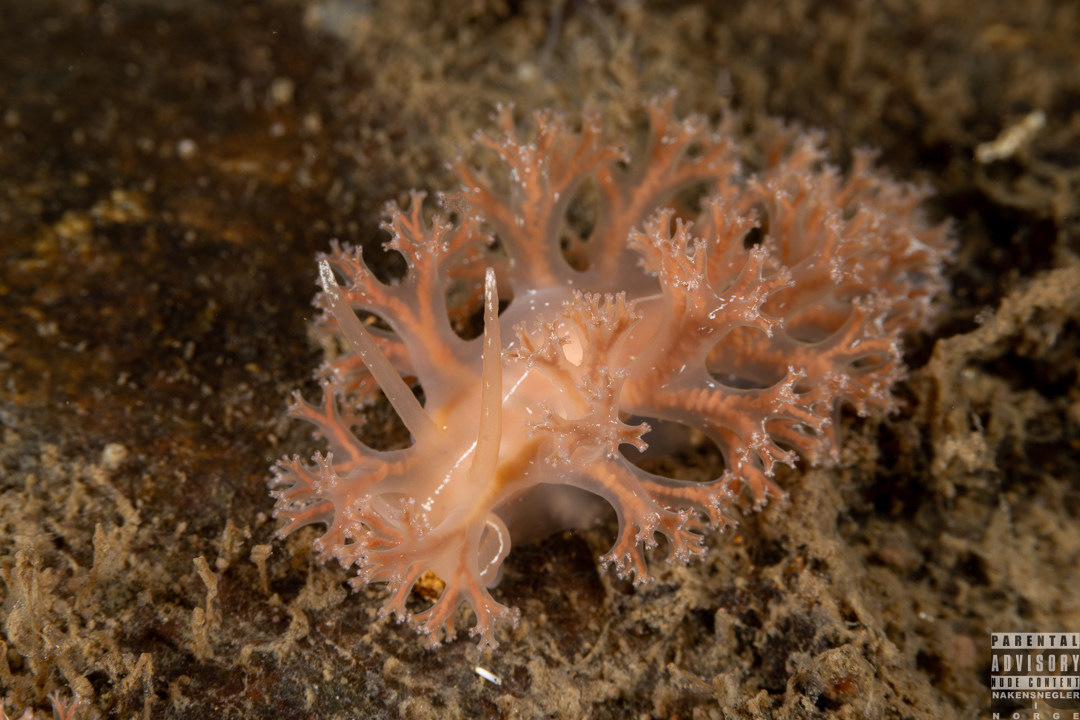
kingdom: Animalia
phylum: Mollusca
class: Gastropoda
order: Nudibranchia
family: Heroidae
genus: Hero
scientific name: Hero formosa
